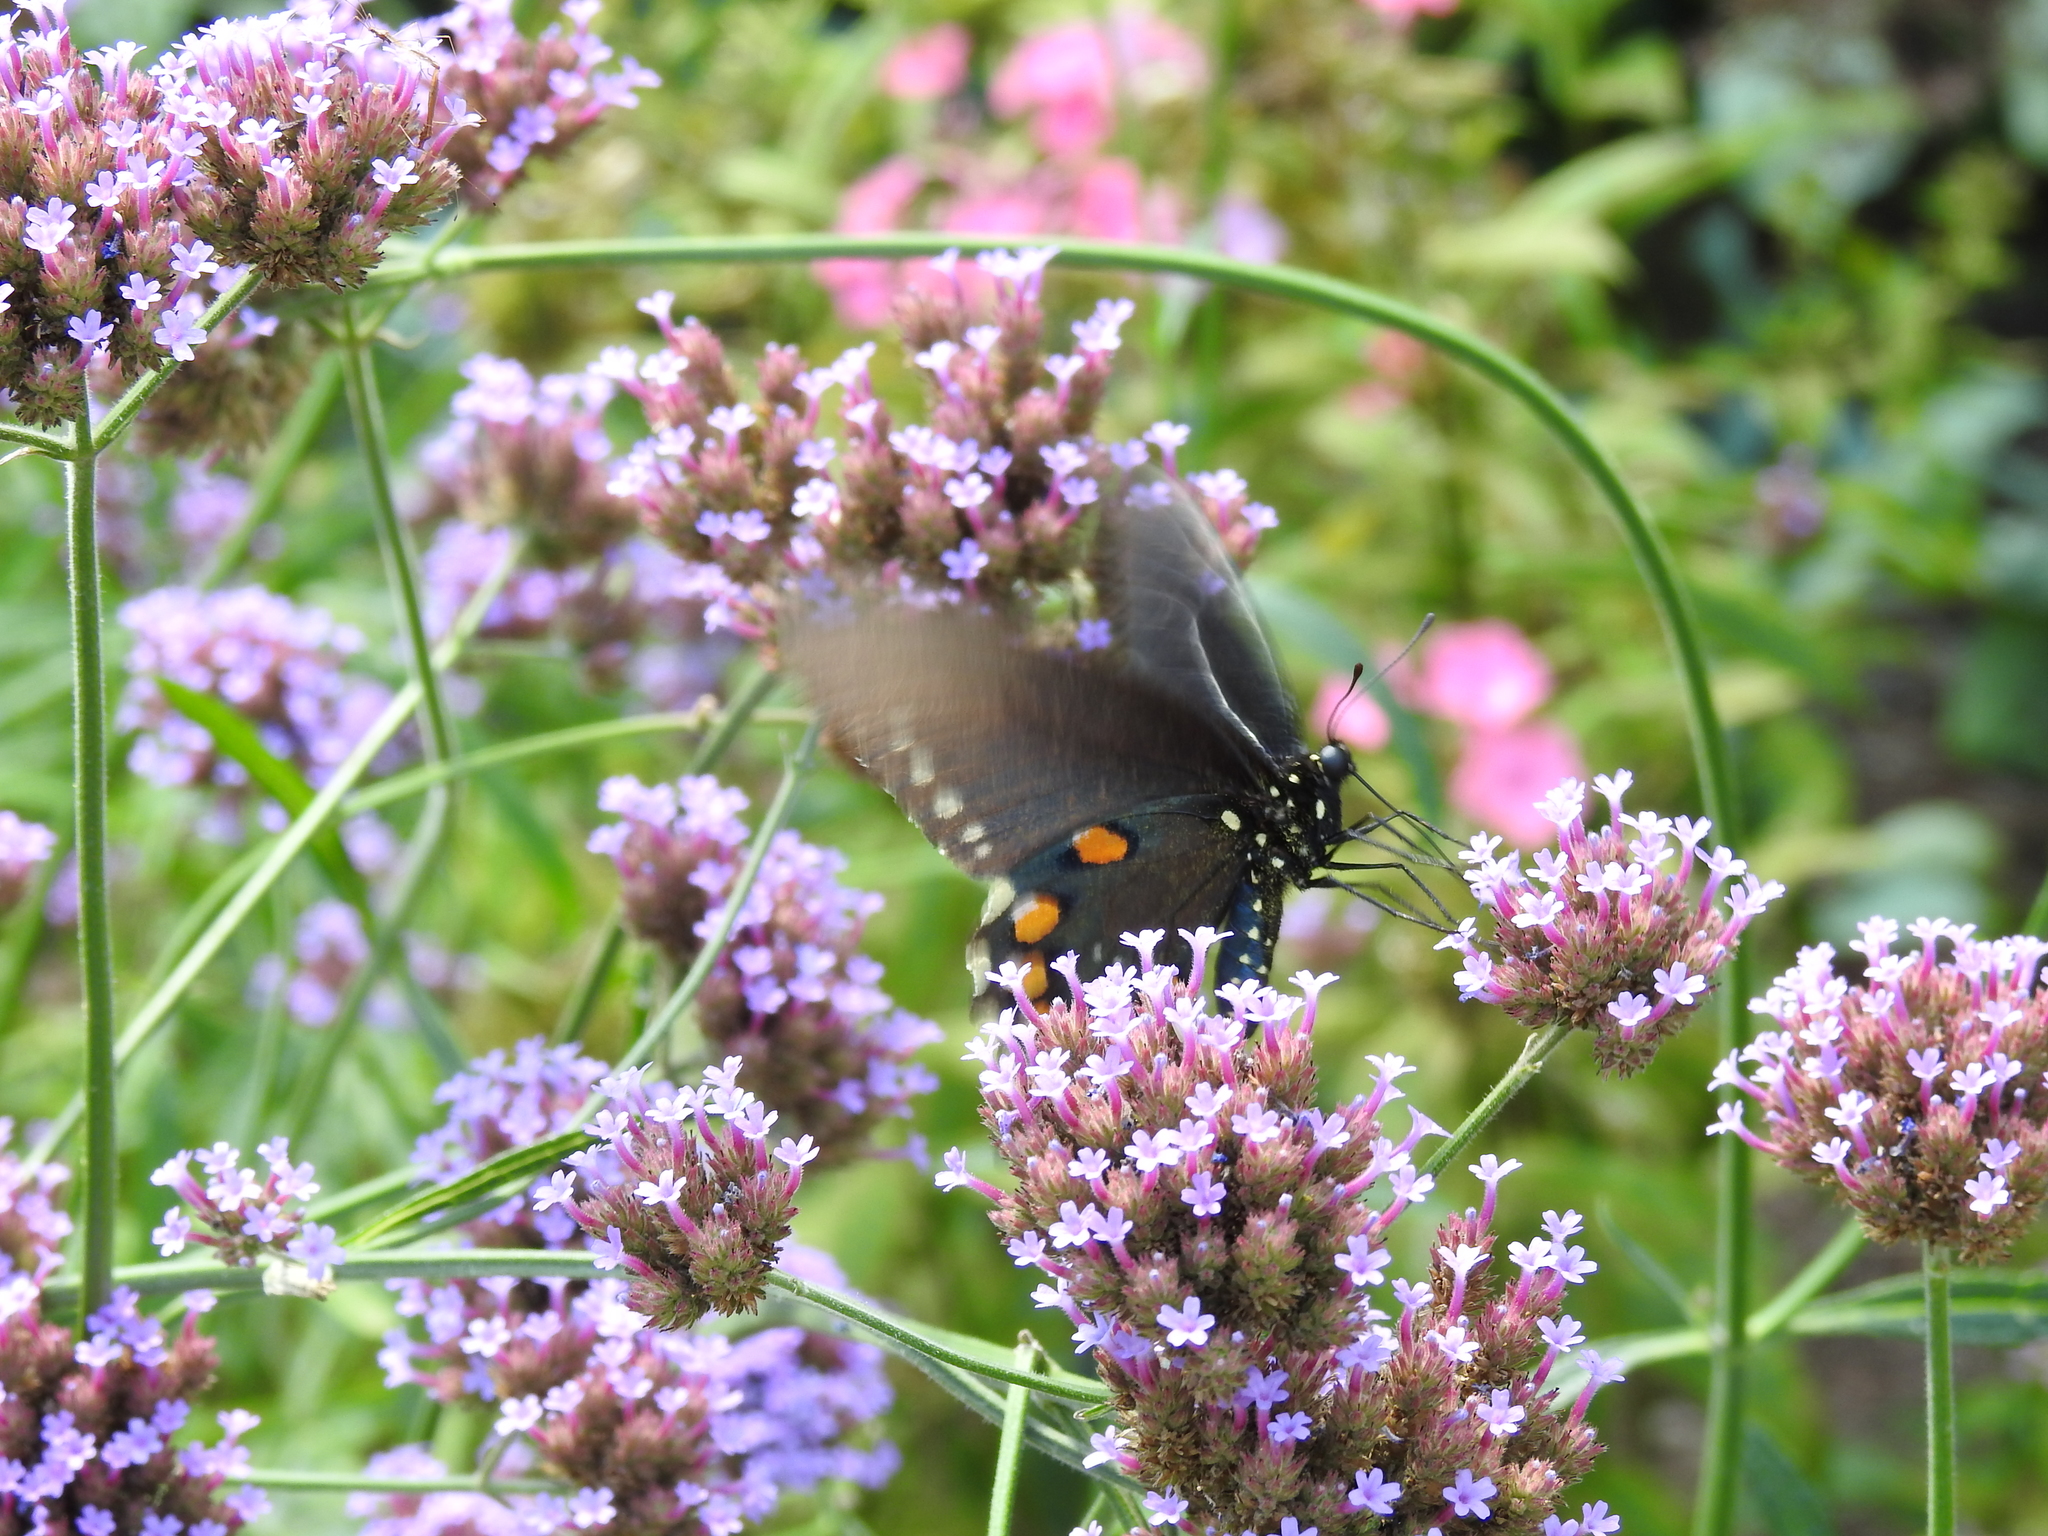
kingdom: Animalia
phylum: Arthropoda
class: Insecta
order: Lepidoptera
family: Papilionidae
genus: Battus
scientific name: Battus philenor
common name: Pipevine swallowtail
